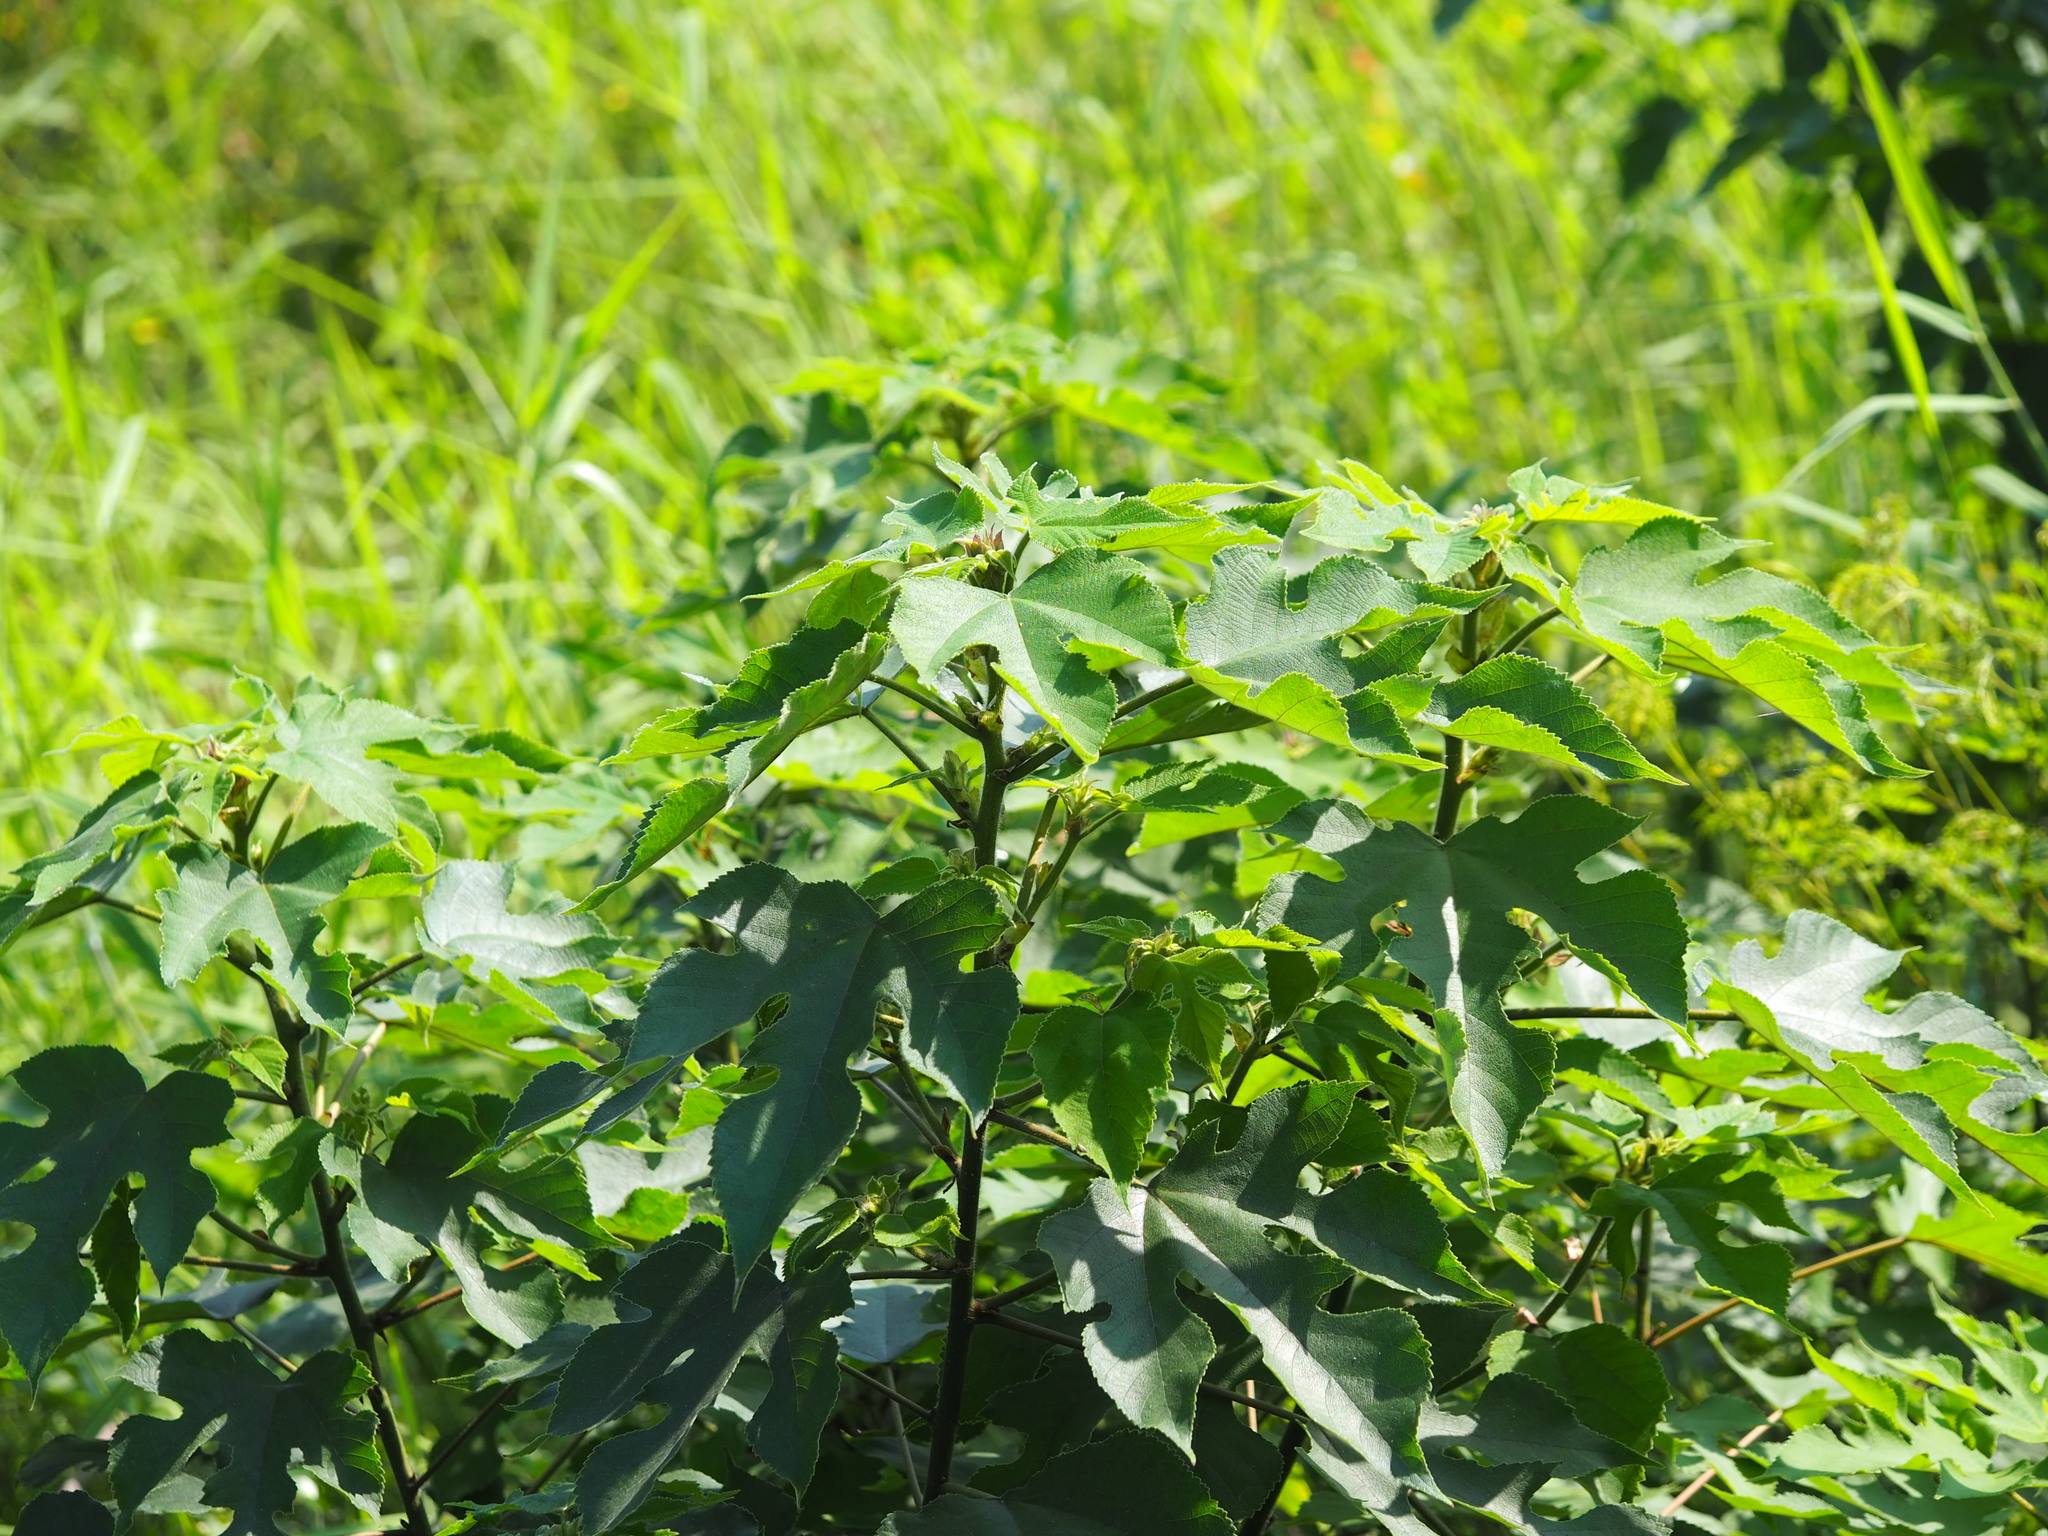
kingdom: Plantae
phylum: Tracheophyta
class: Magnoliopsida
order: Rosales
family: Moraceae
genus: Broussonetia
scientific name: Broussonetia papyrifera
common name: Paper mulberry
